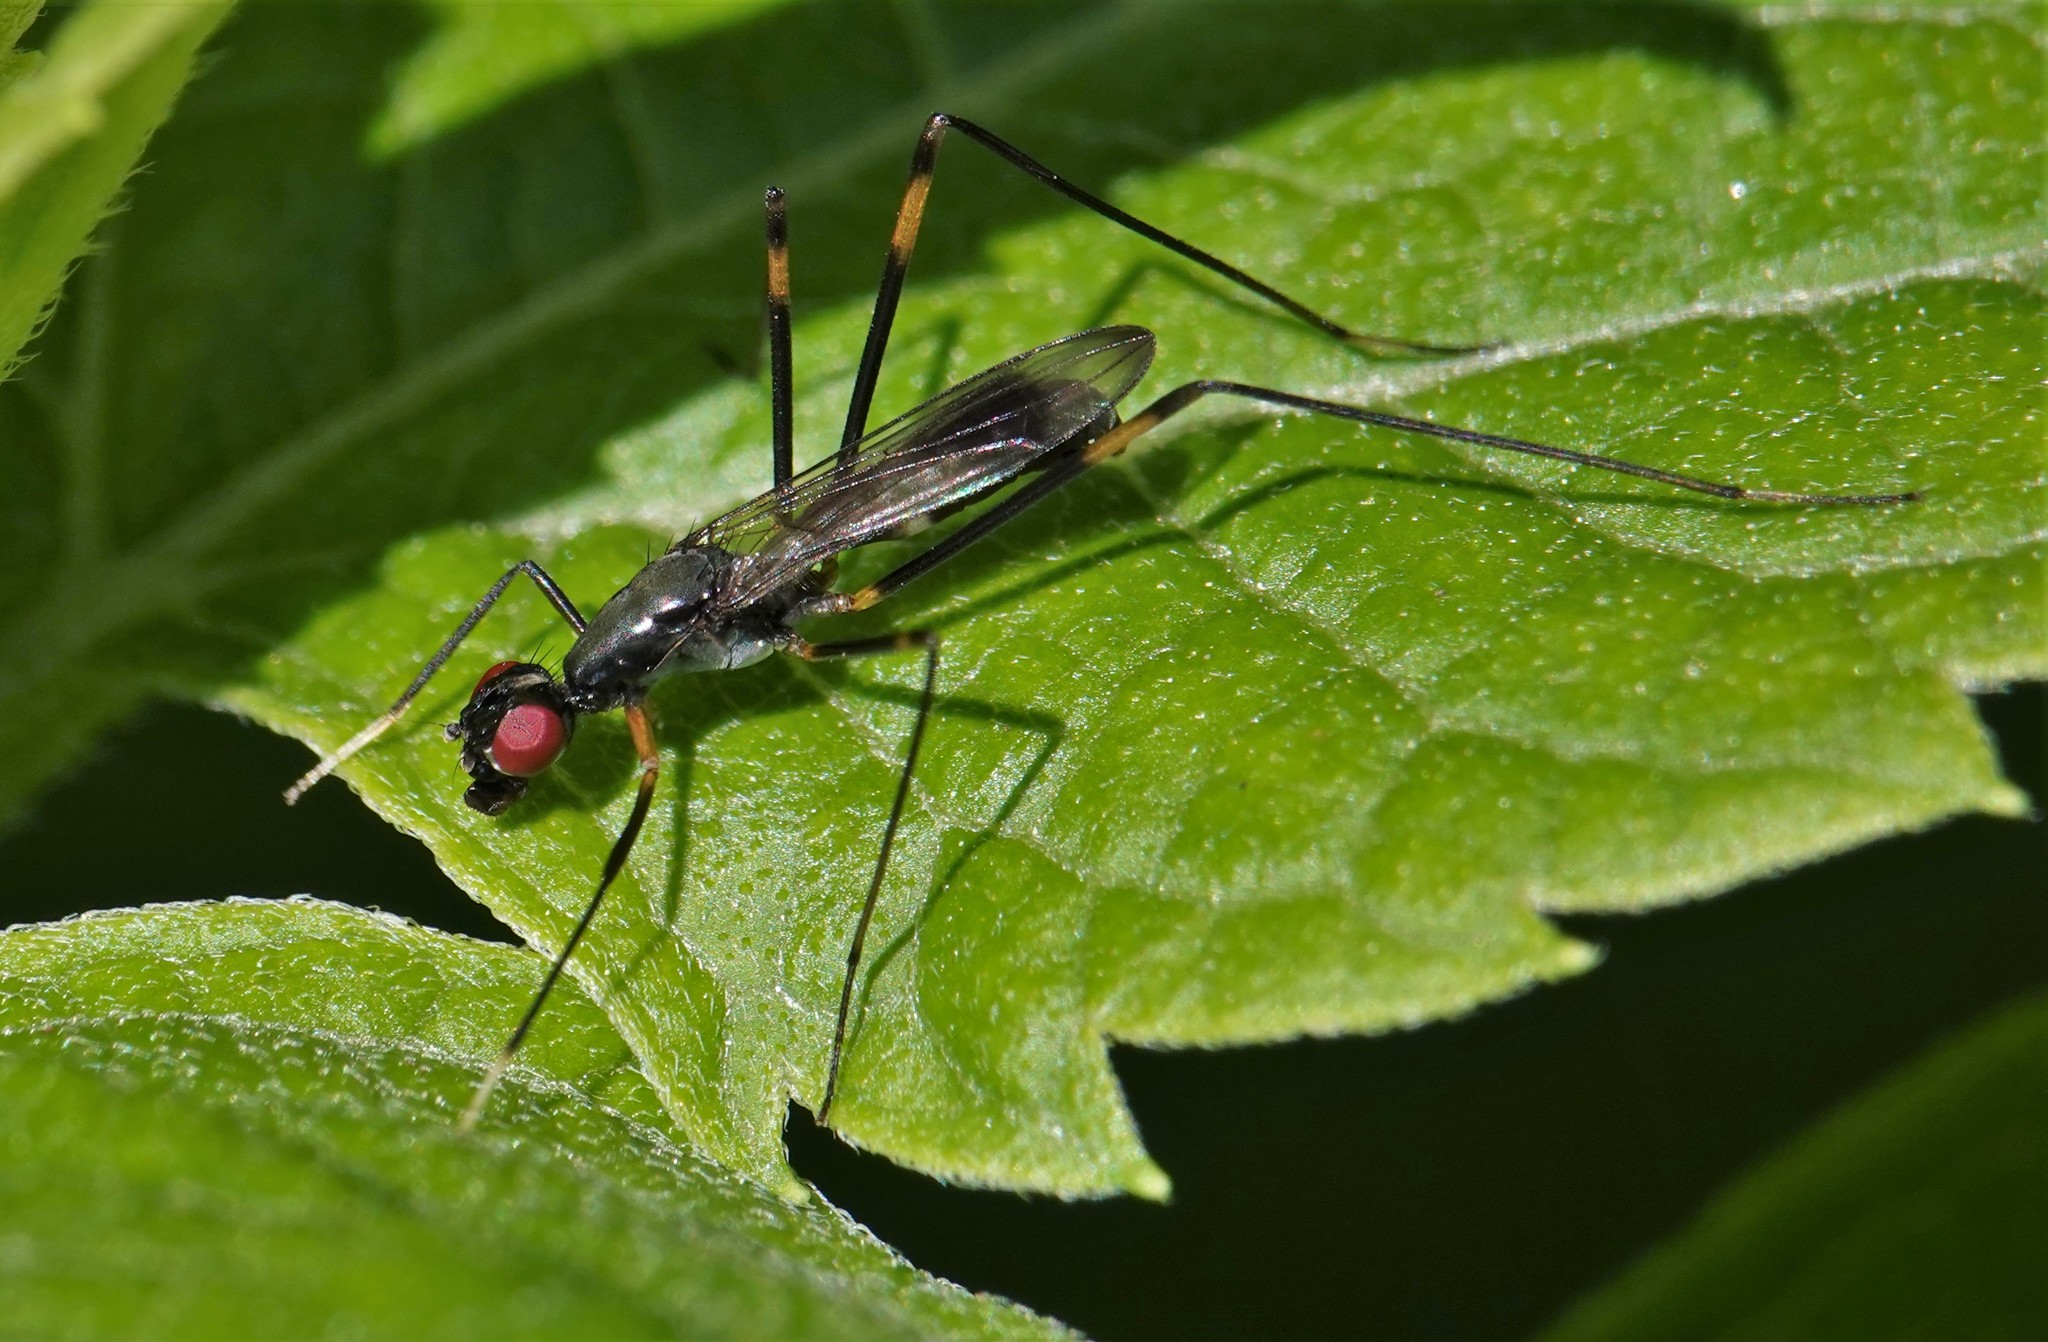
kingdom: Animalia
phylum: Arthropoda
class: Insecta
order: Diptera
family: Micropezidae
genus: Rainieria
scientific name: Rainieria antennaepes
